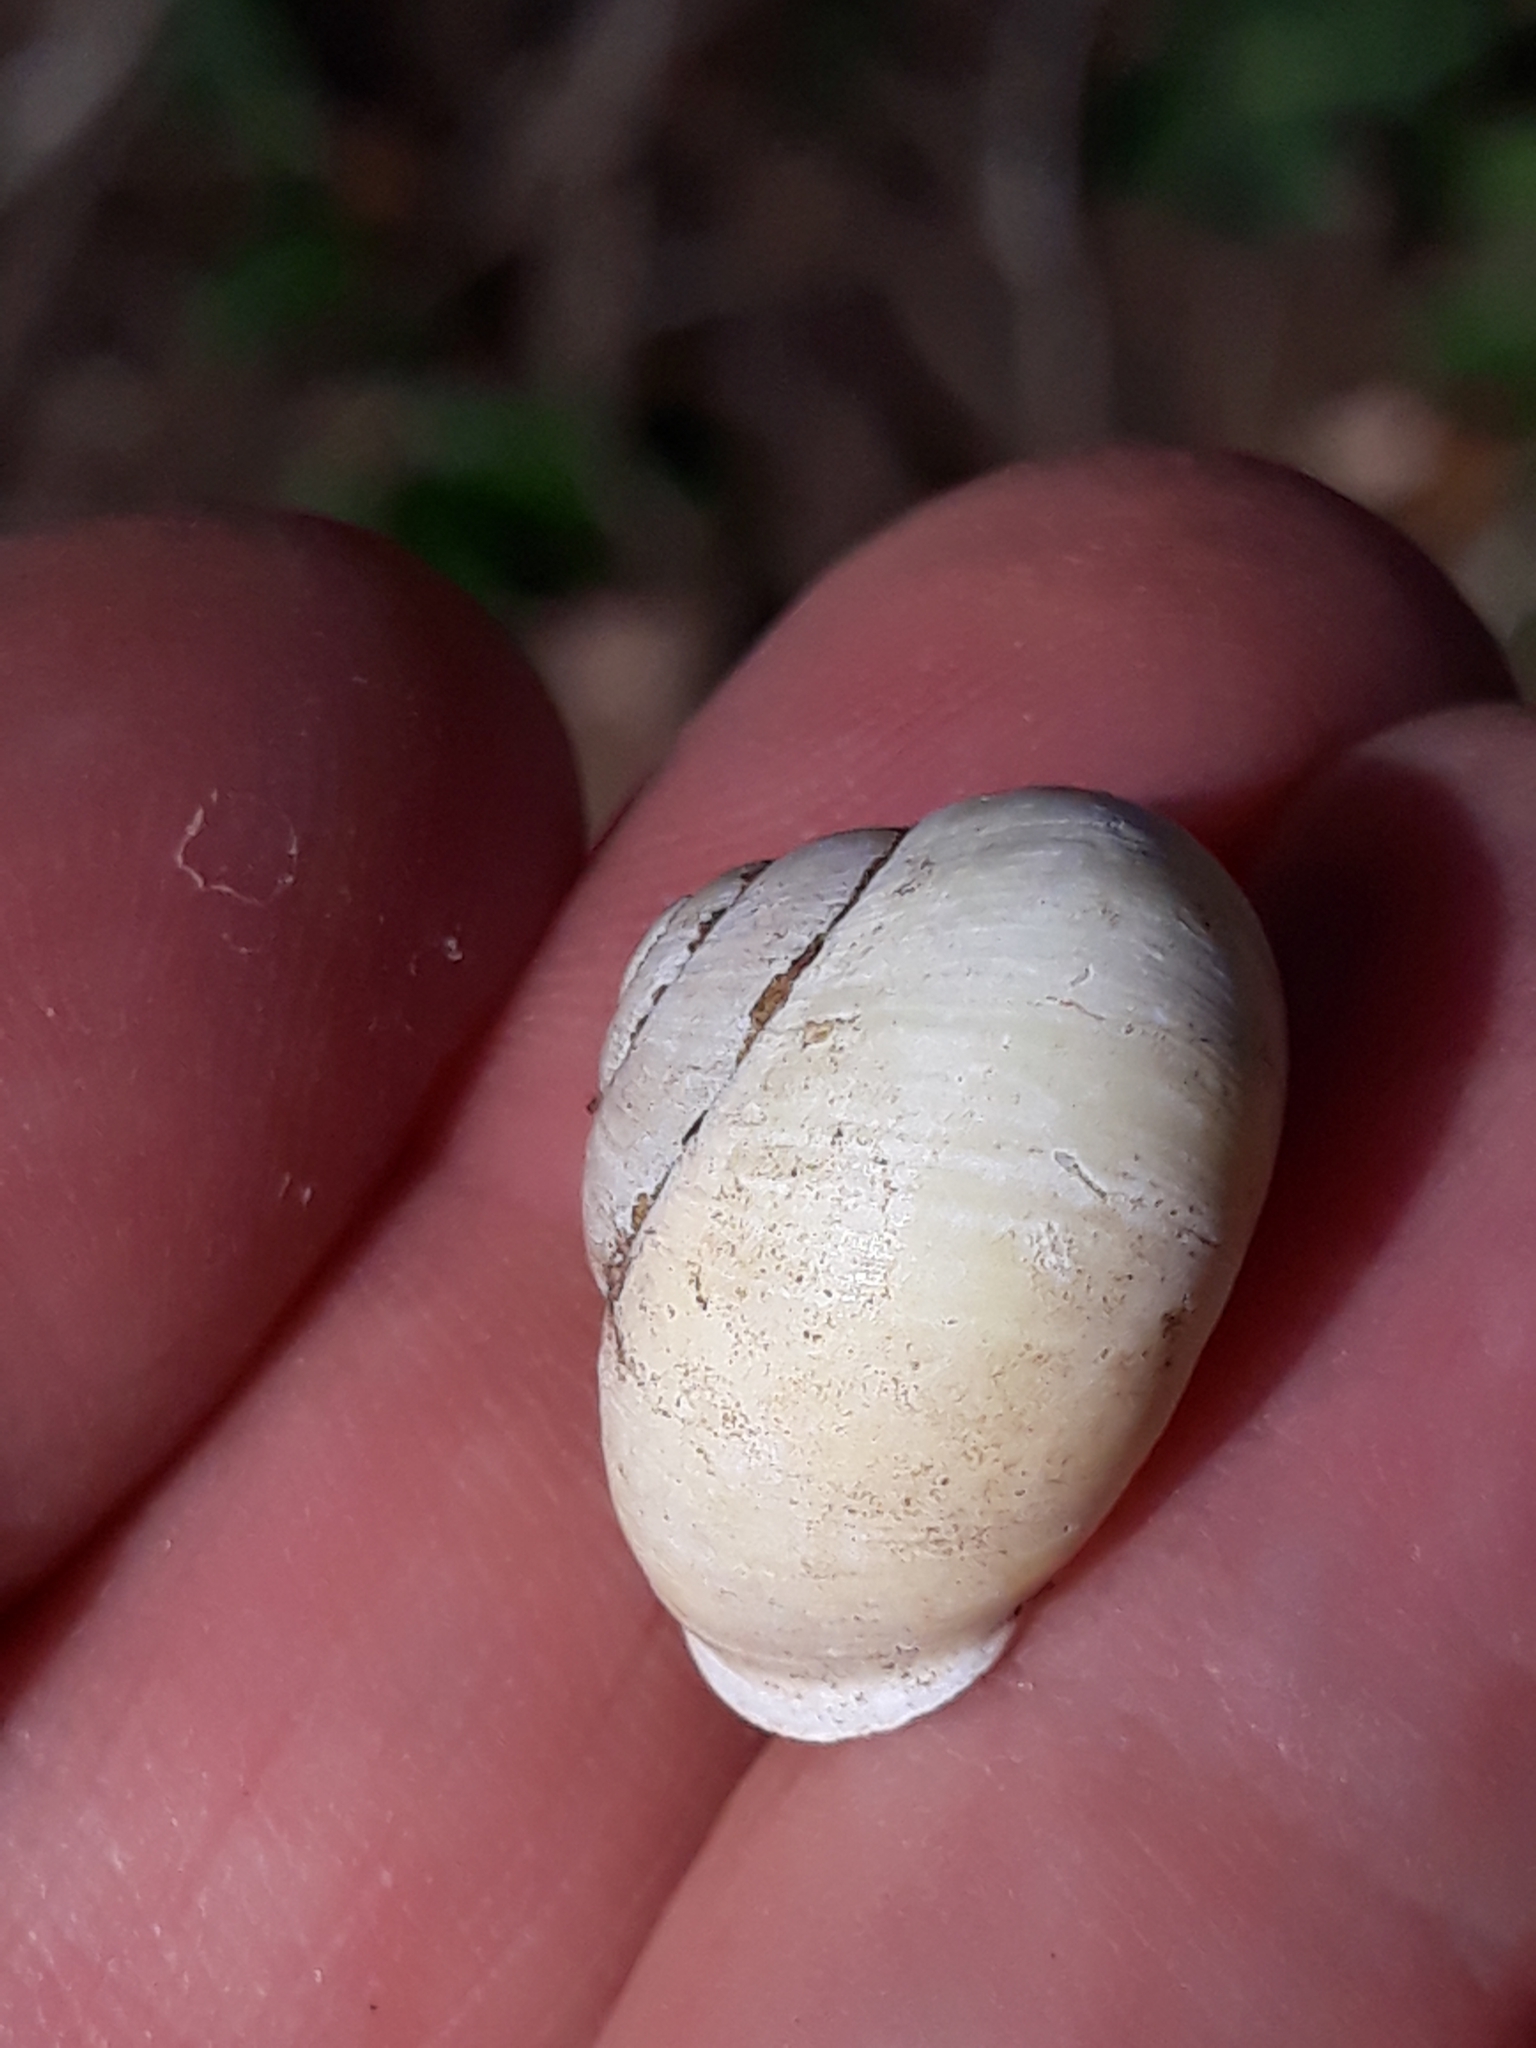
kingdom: Animalia
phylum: Mollusca
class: Gastropoda
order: Stylommatophora
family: Helicidae
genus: Cepaea
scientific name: Cepaea hortensis
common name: White-lip gardensnail
